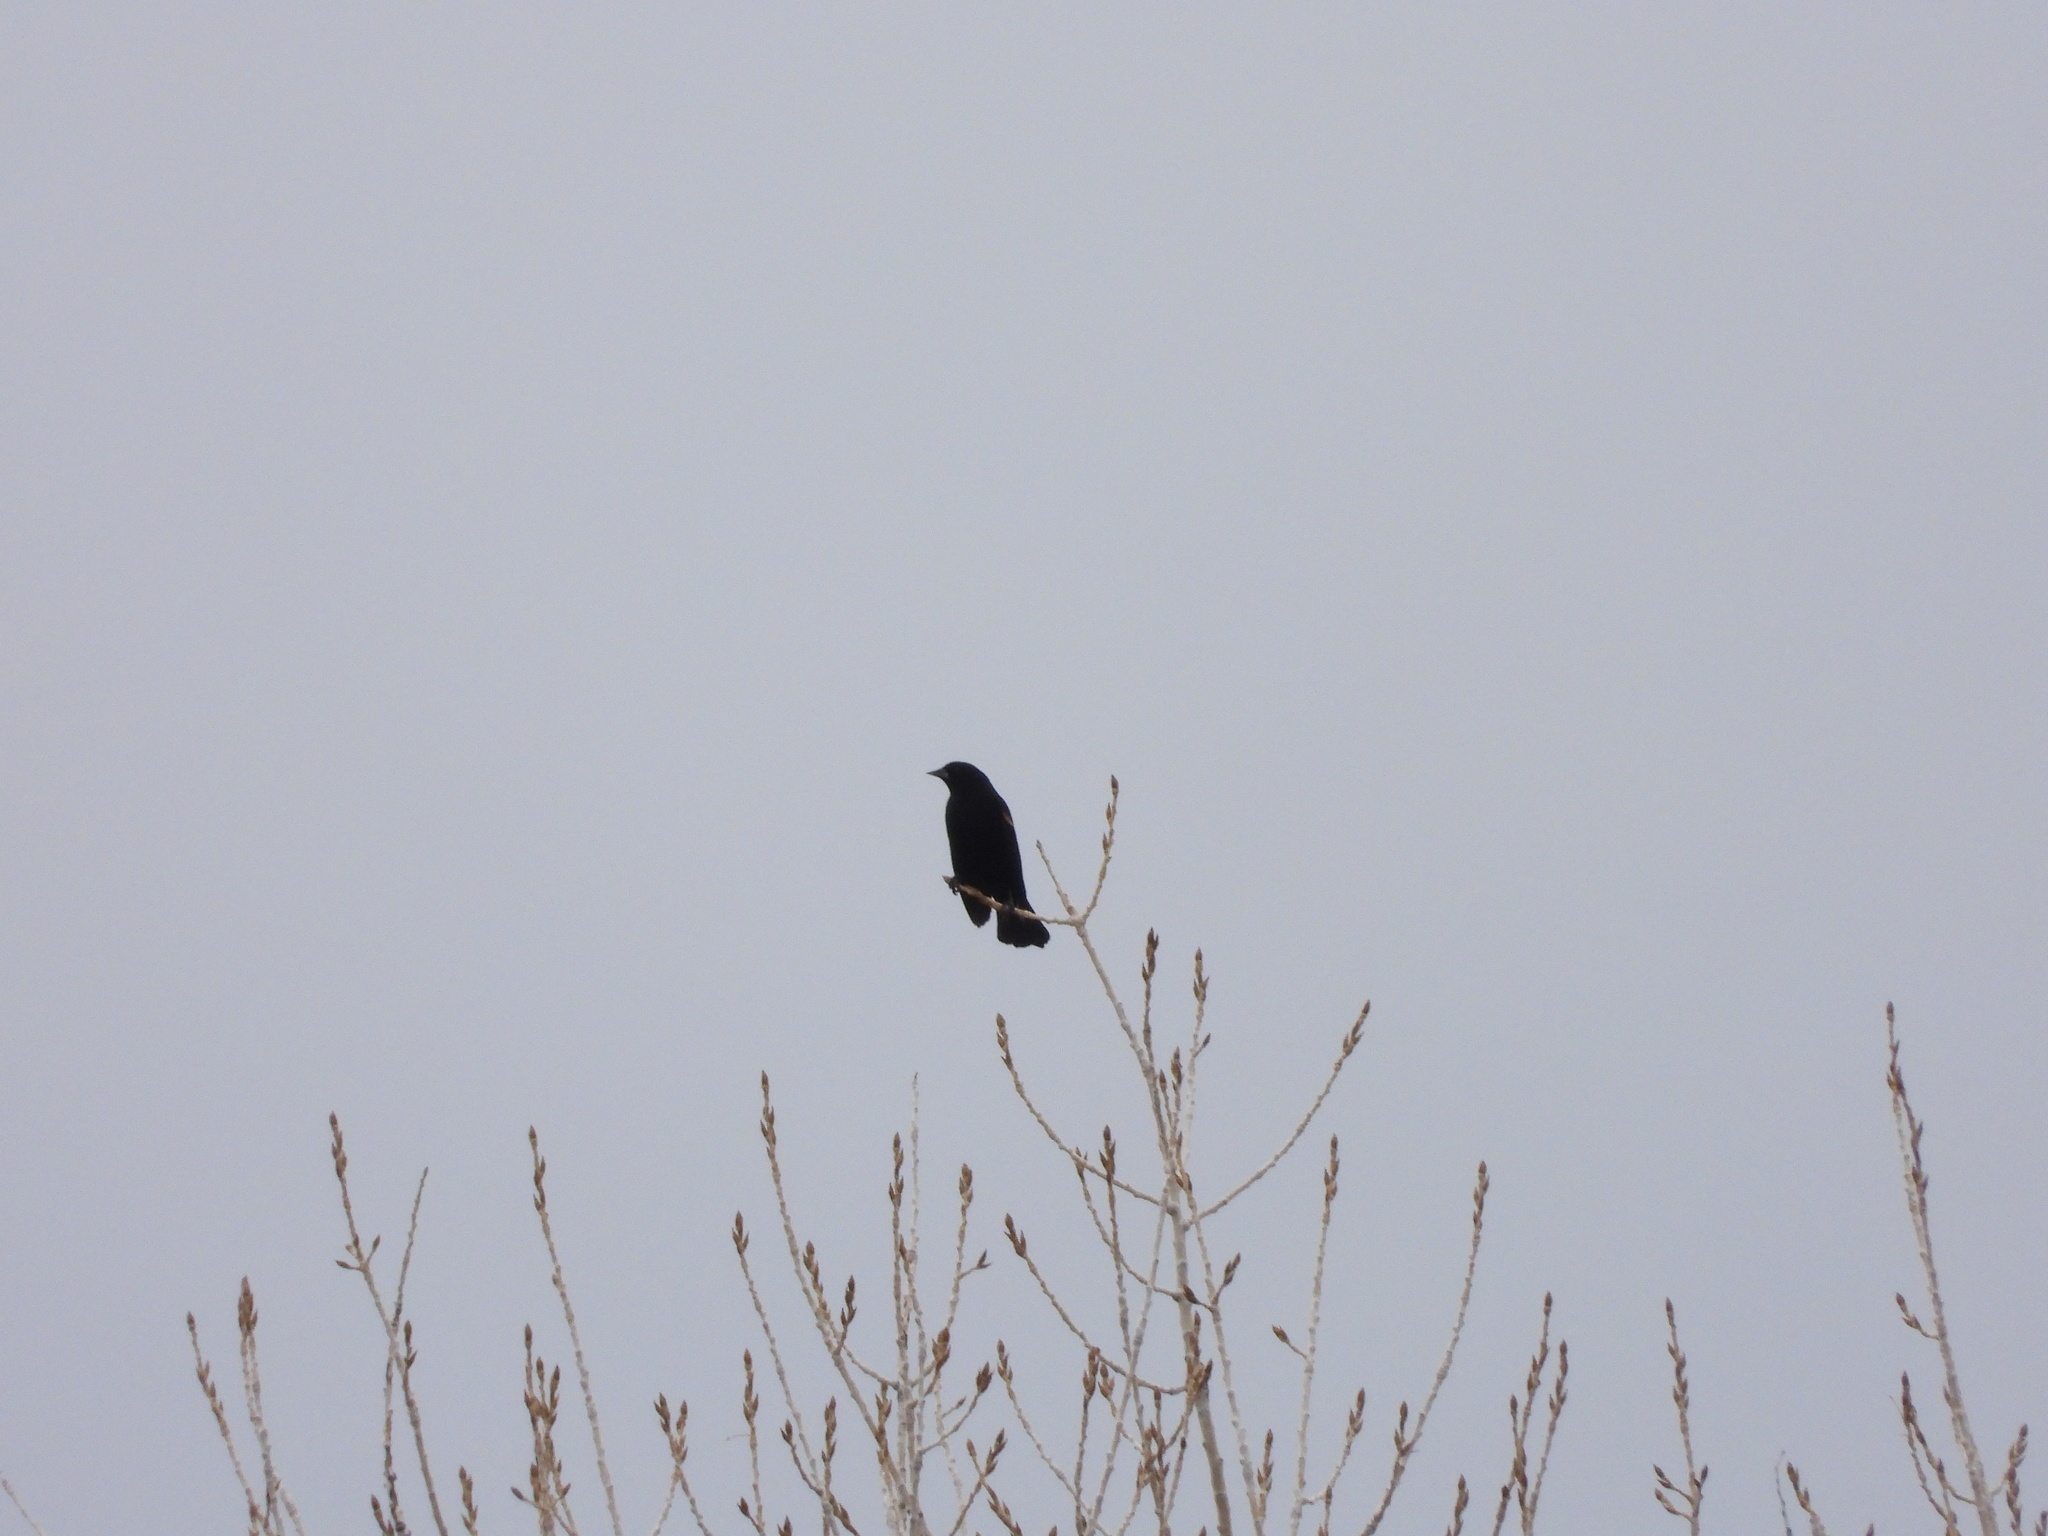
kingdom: Animalia
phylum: Chordata
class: Aves
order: Passeriformes
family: Icteridae
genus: Agelaius
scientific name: Agelaius phoeniceus
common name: Red-winged blackbird
